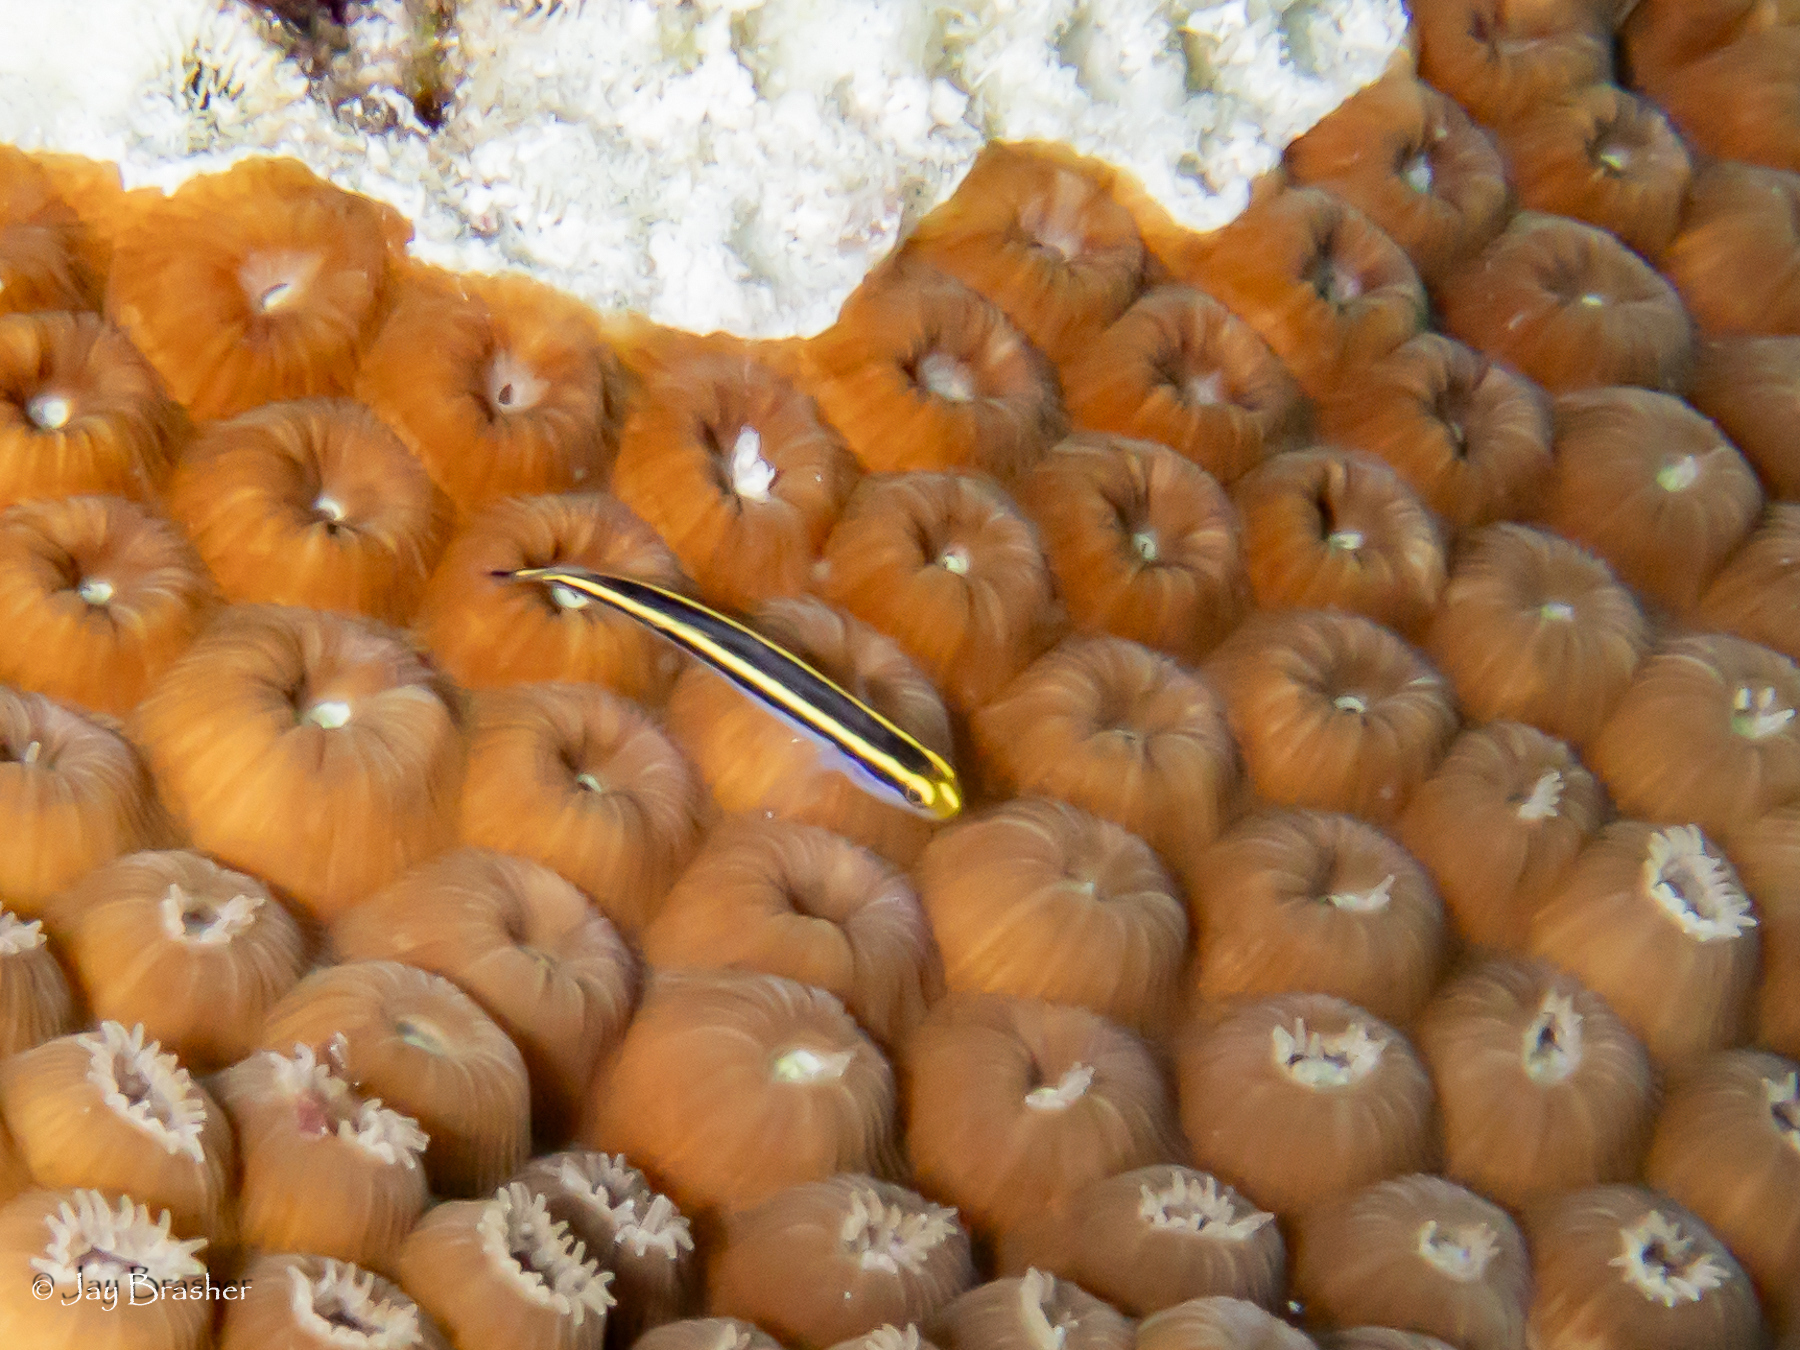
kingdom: Animalia
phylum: Chordata
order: Perciformes
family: Gobiidae
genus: Elacatinus
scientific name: Elacatinus randalli
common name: Yellownose goby
